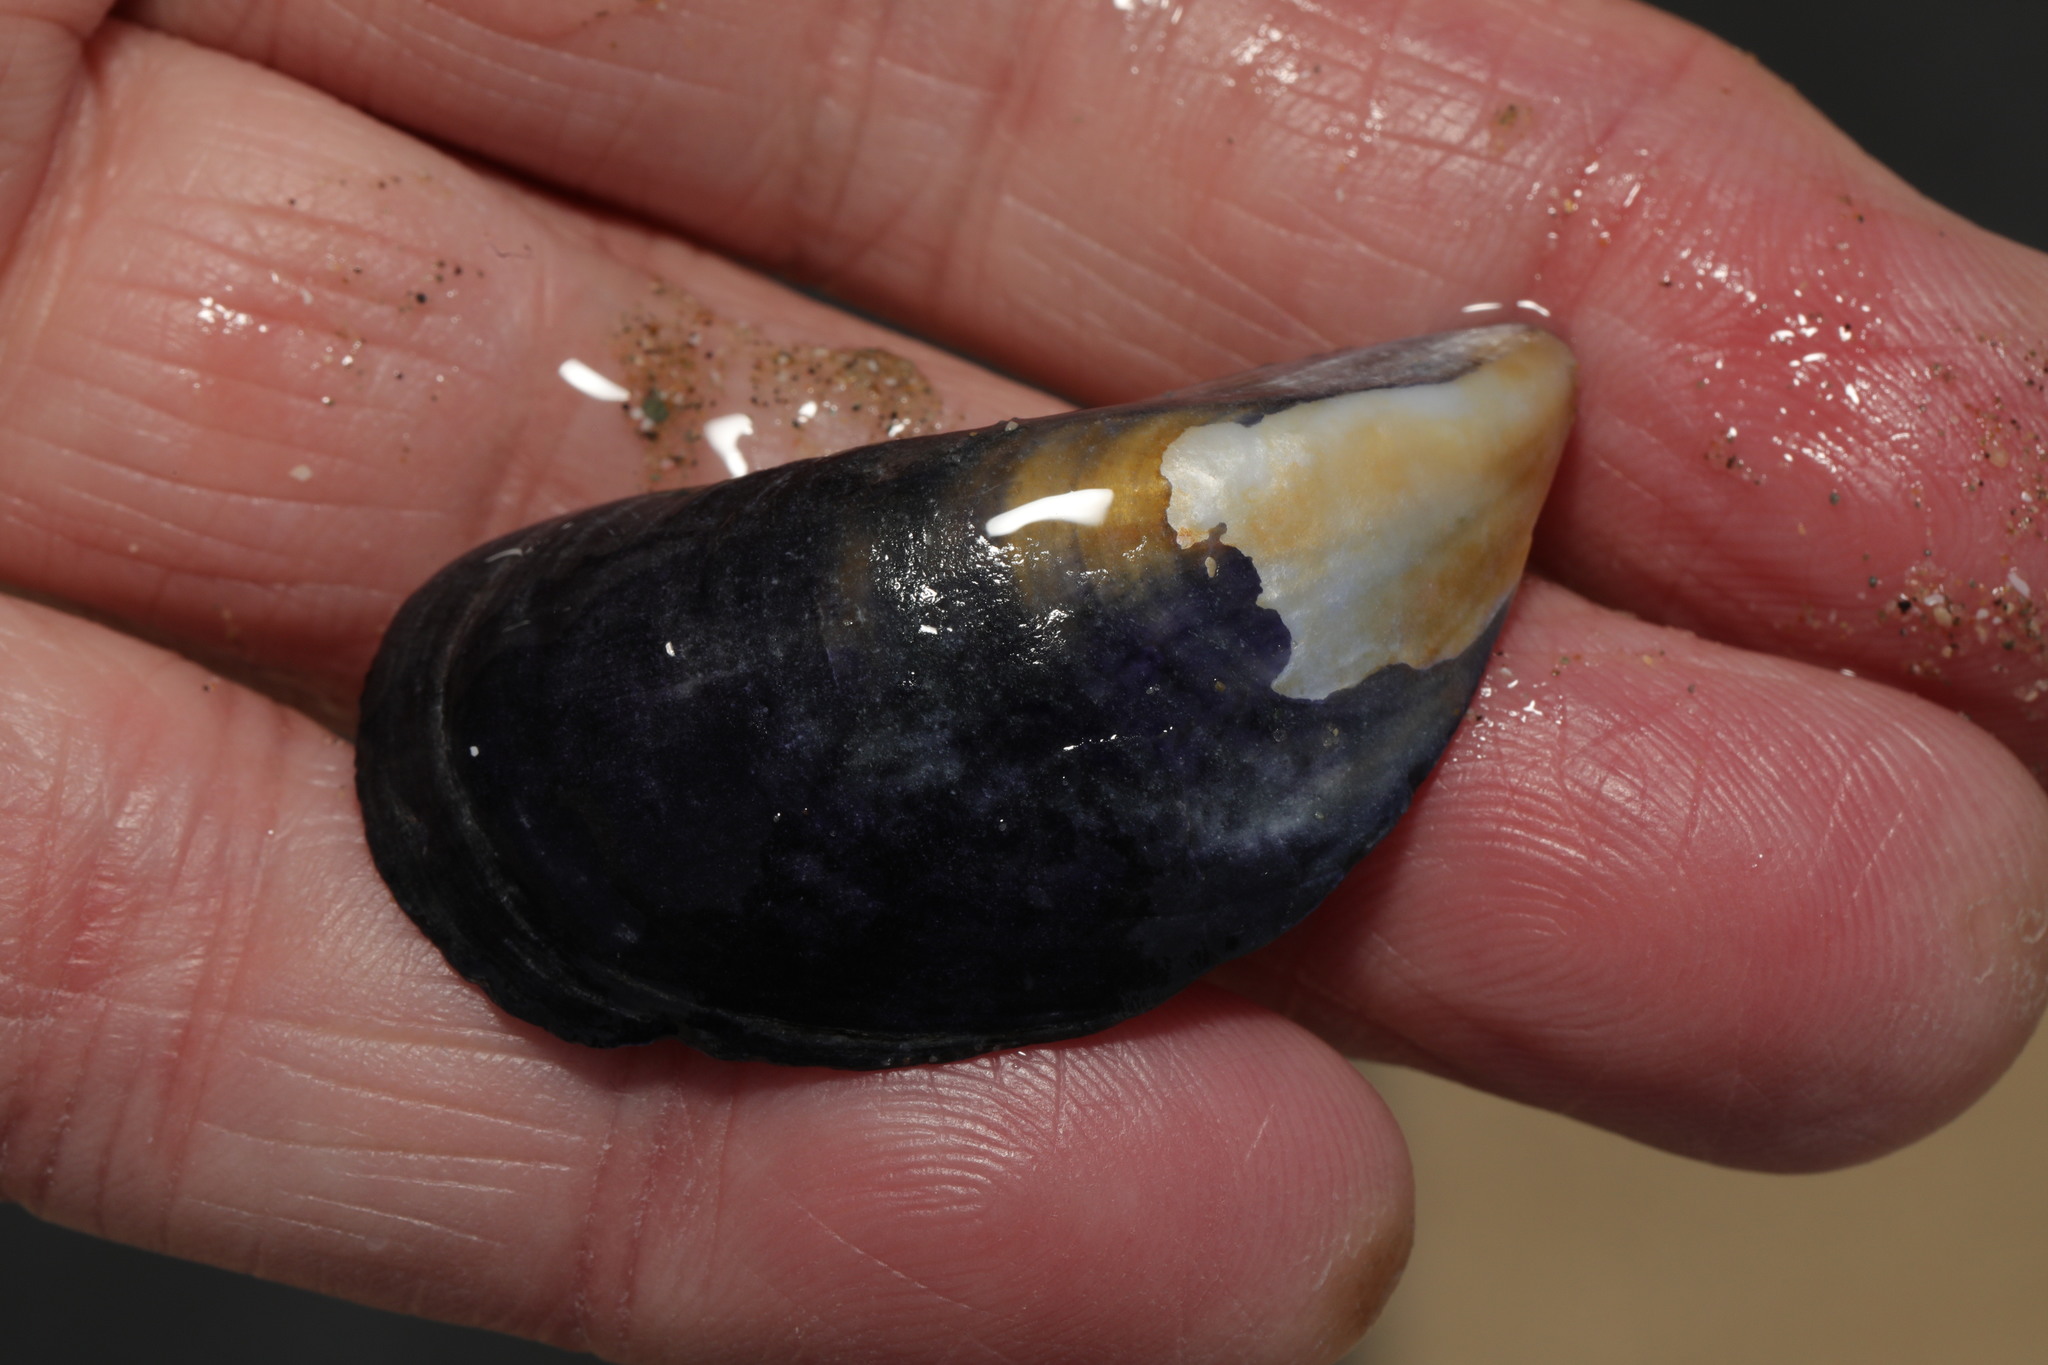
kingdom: Animalia
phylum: Mollusca
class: Bivalvia
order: Mytilida
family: Mytilidae
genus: Mytilus
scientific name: Mytilus edulis
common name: Blue mussel
